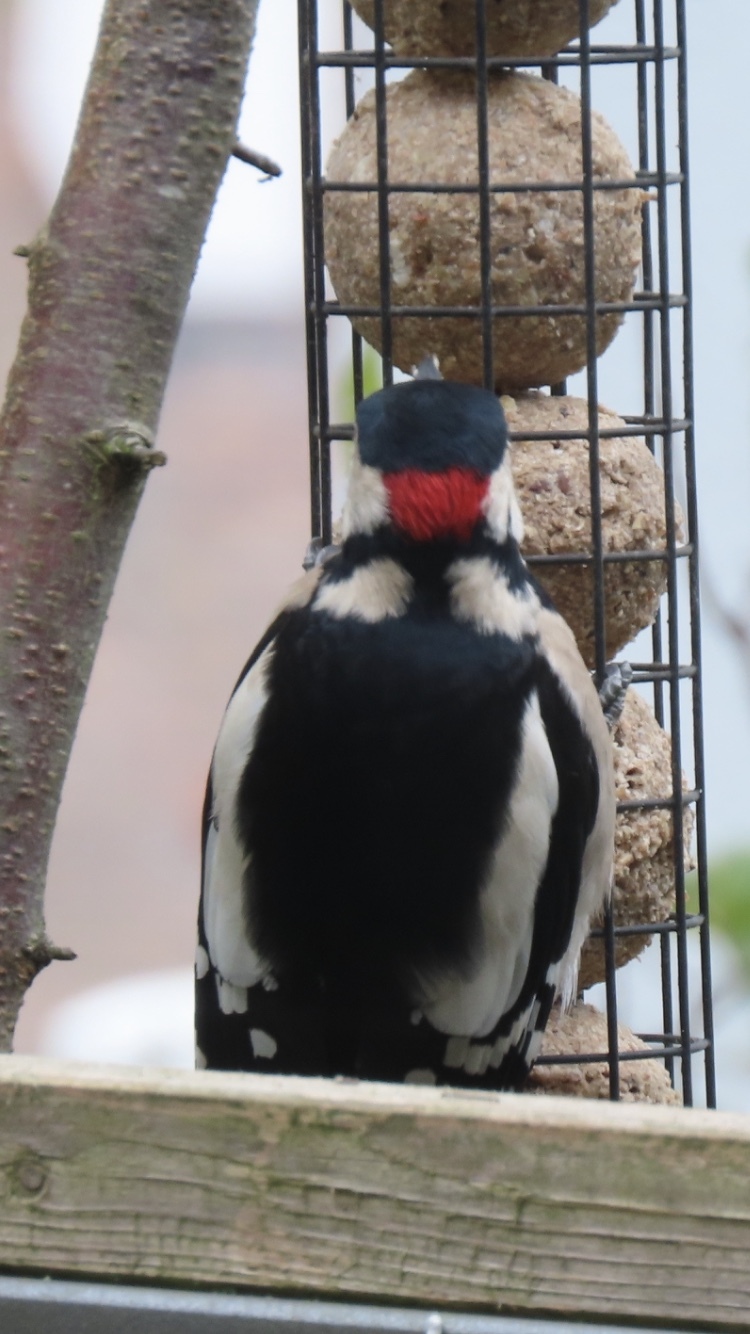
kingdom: Animalia
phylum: Chordata
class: Aves
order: Piciformes
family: Picidae
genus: Dendrocopos
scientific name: Dendrocopos major
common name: Great spotted woodpecker
